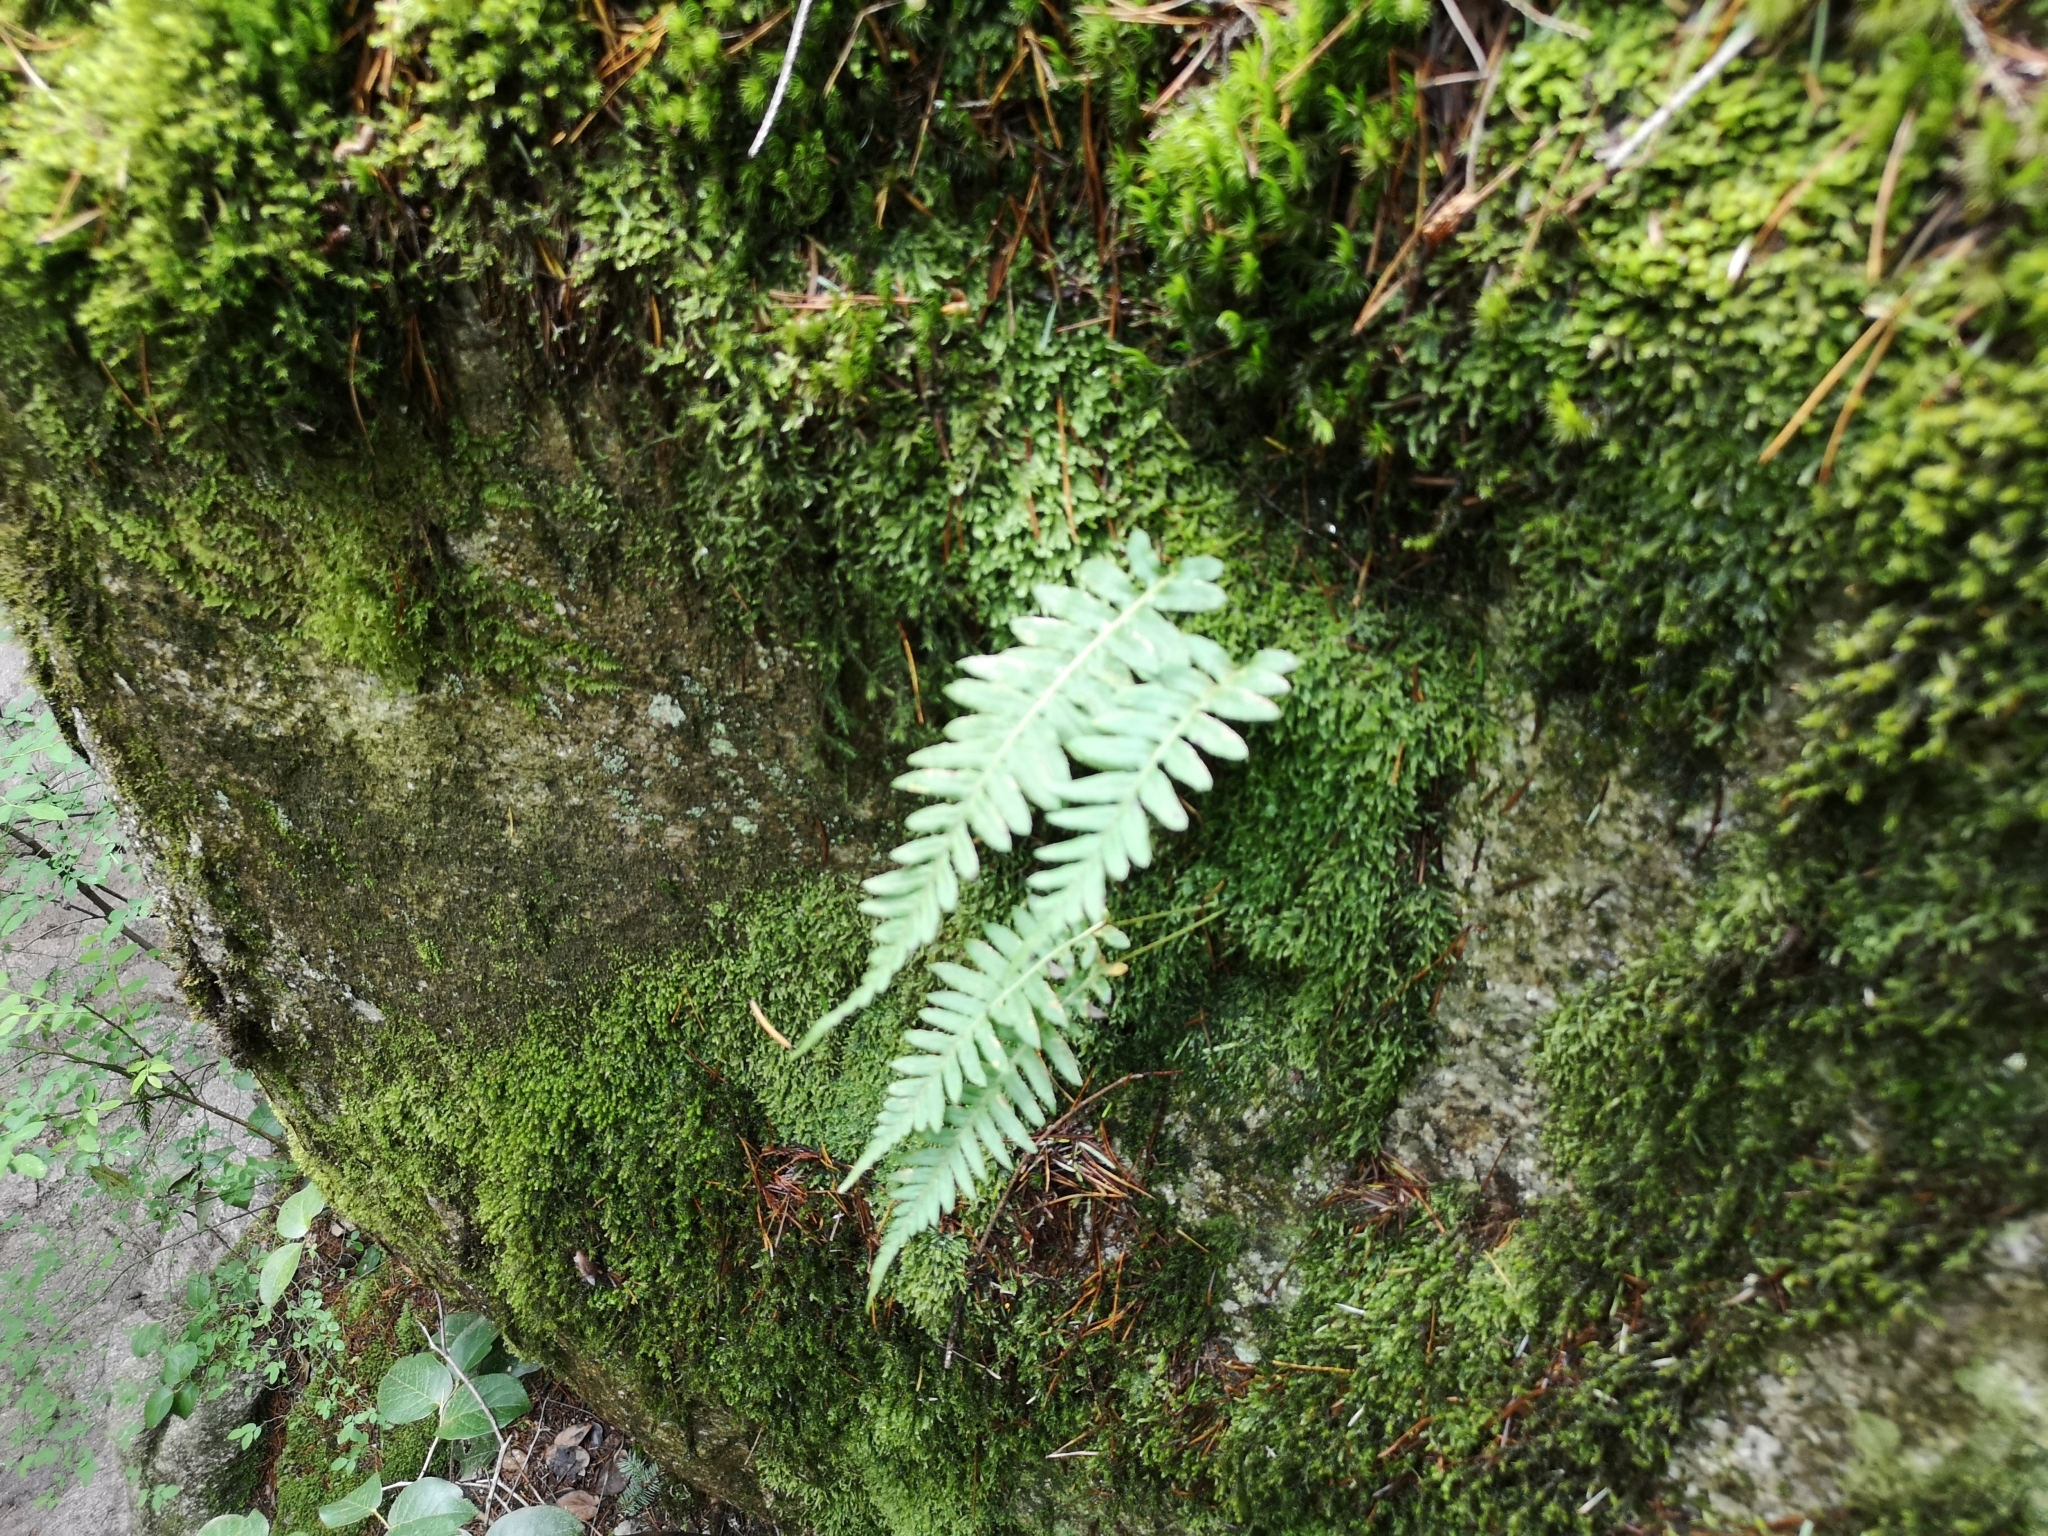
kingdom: Plantae
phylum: Tracheophyta
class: Polypodiopsida
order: Polypodiales
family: Polypodiaceae
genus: Polypodium
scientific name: Polypodium glycyrrhiza
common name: Licorice fern
